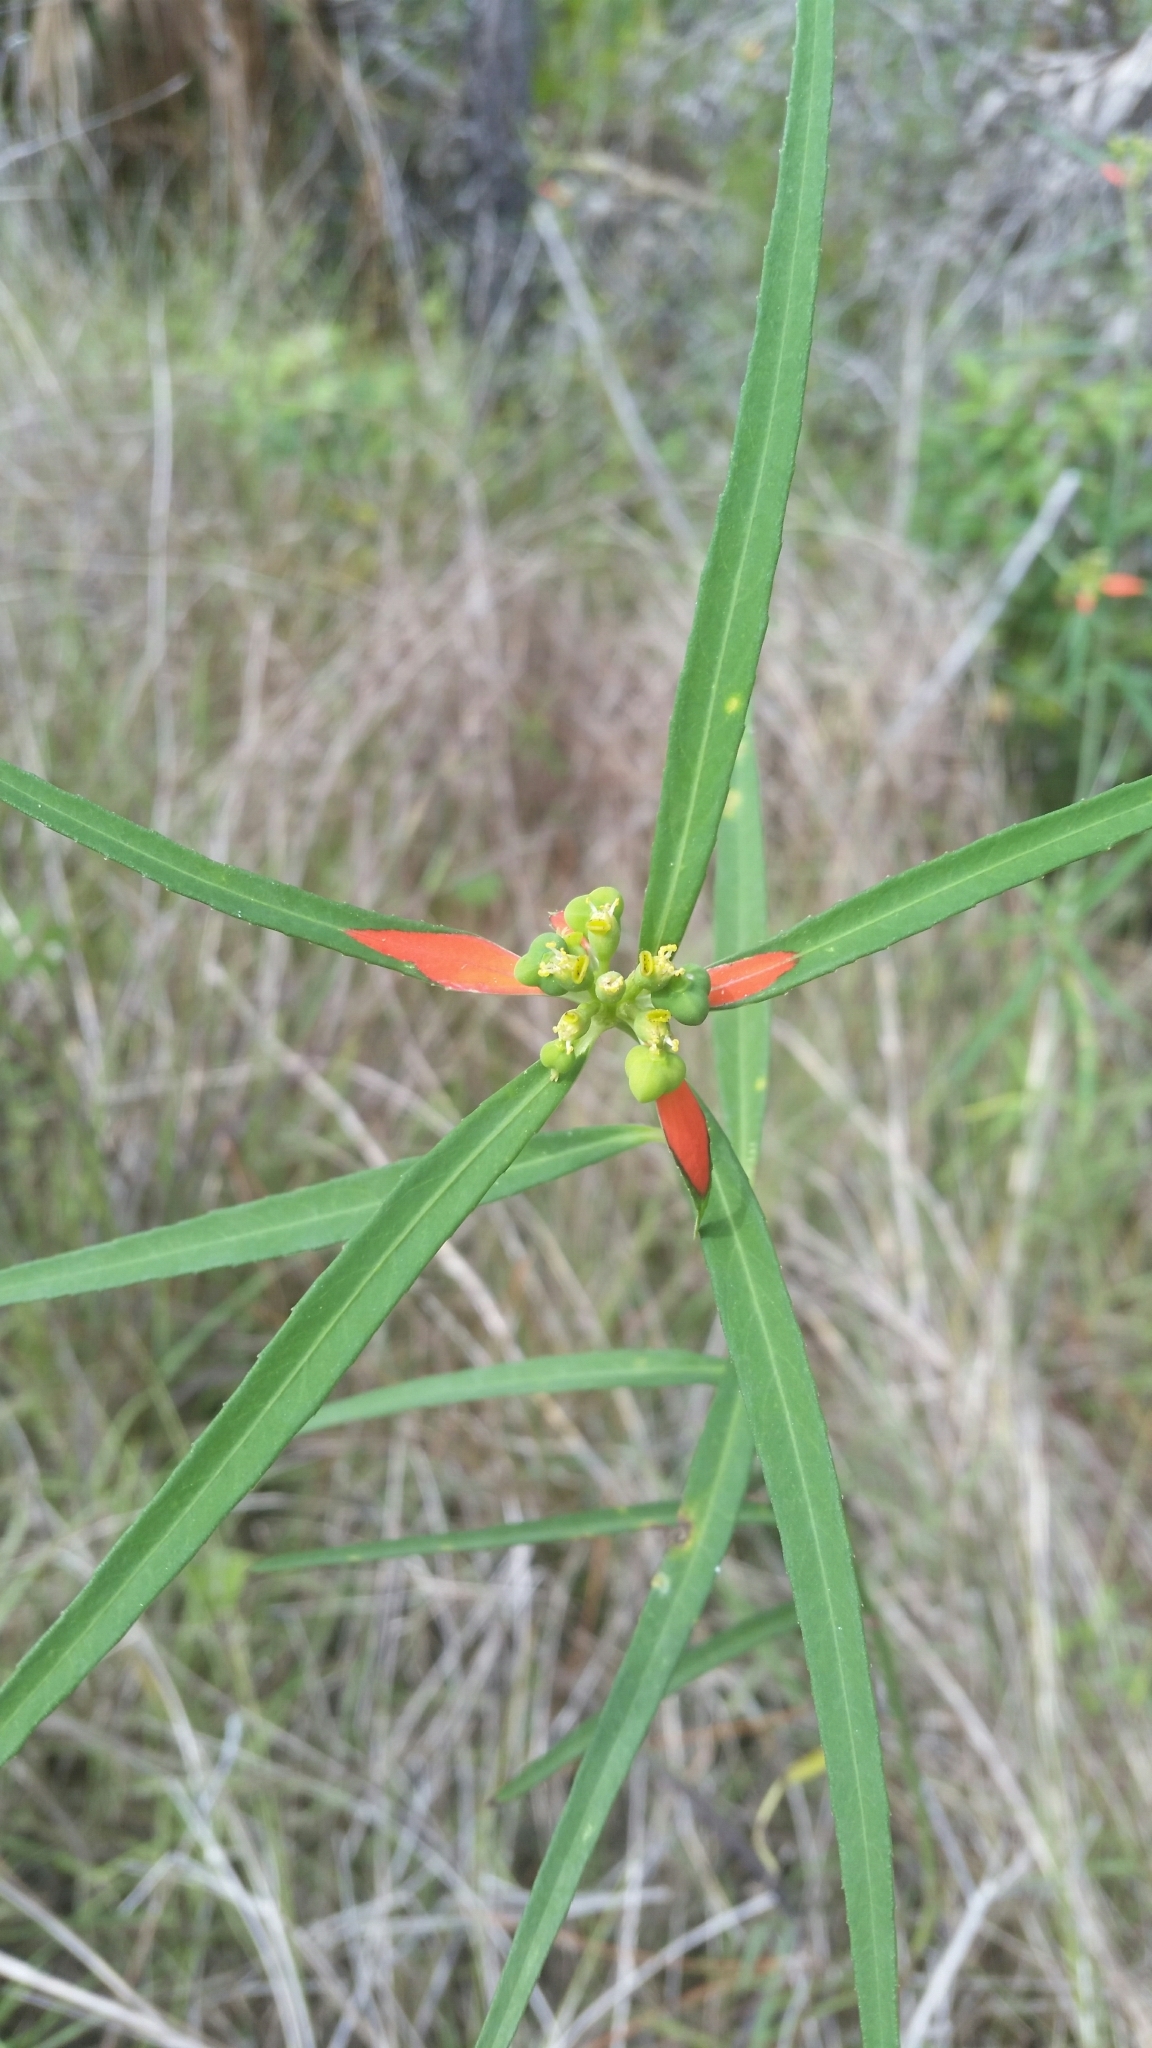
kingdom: Plantae
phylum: Tracheophyta
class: Magnoliopsida
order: Malpighiales
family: Euphorbiaceae
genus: Euphorbia
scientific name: Euphorbia heterophylla
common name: Mexican fireplant
